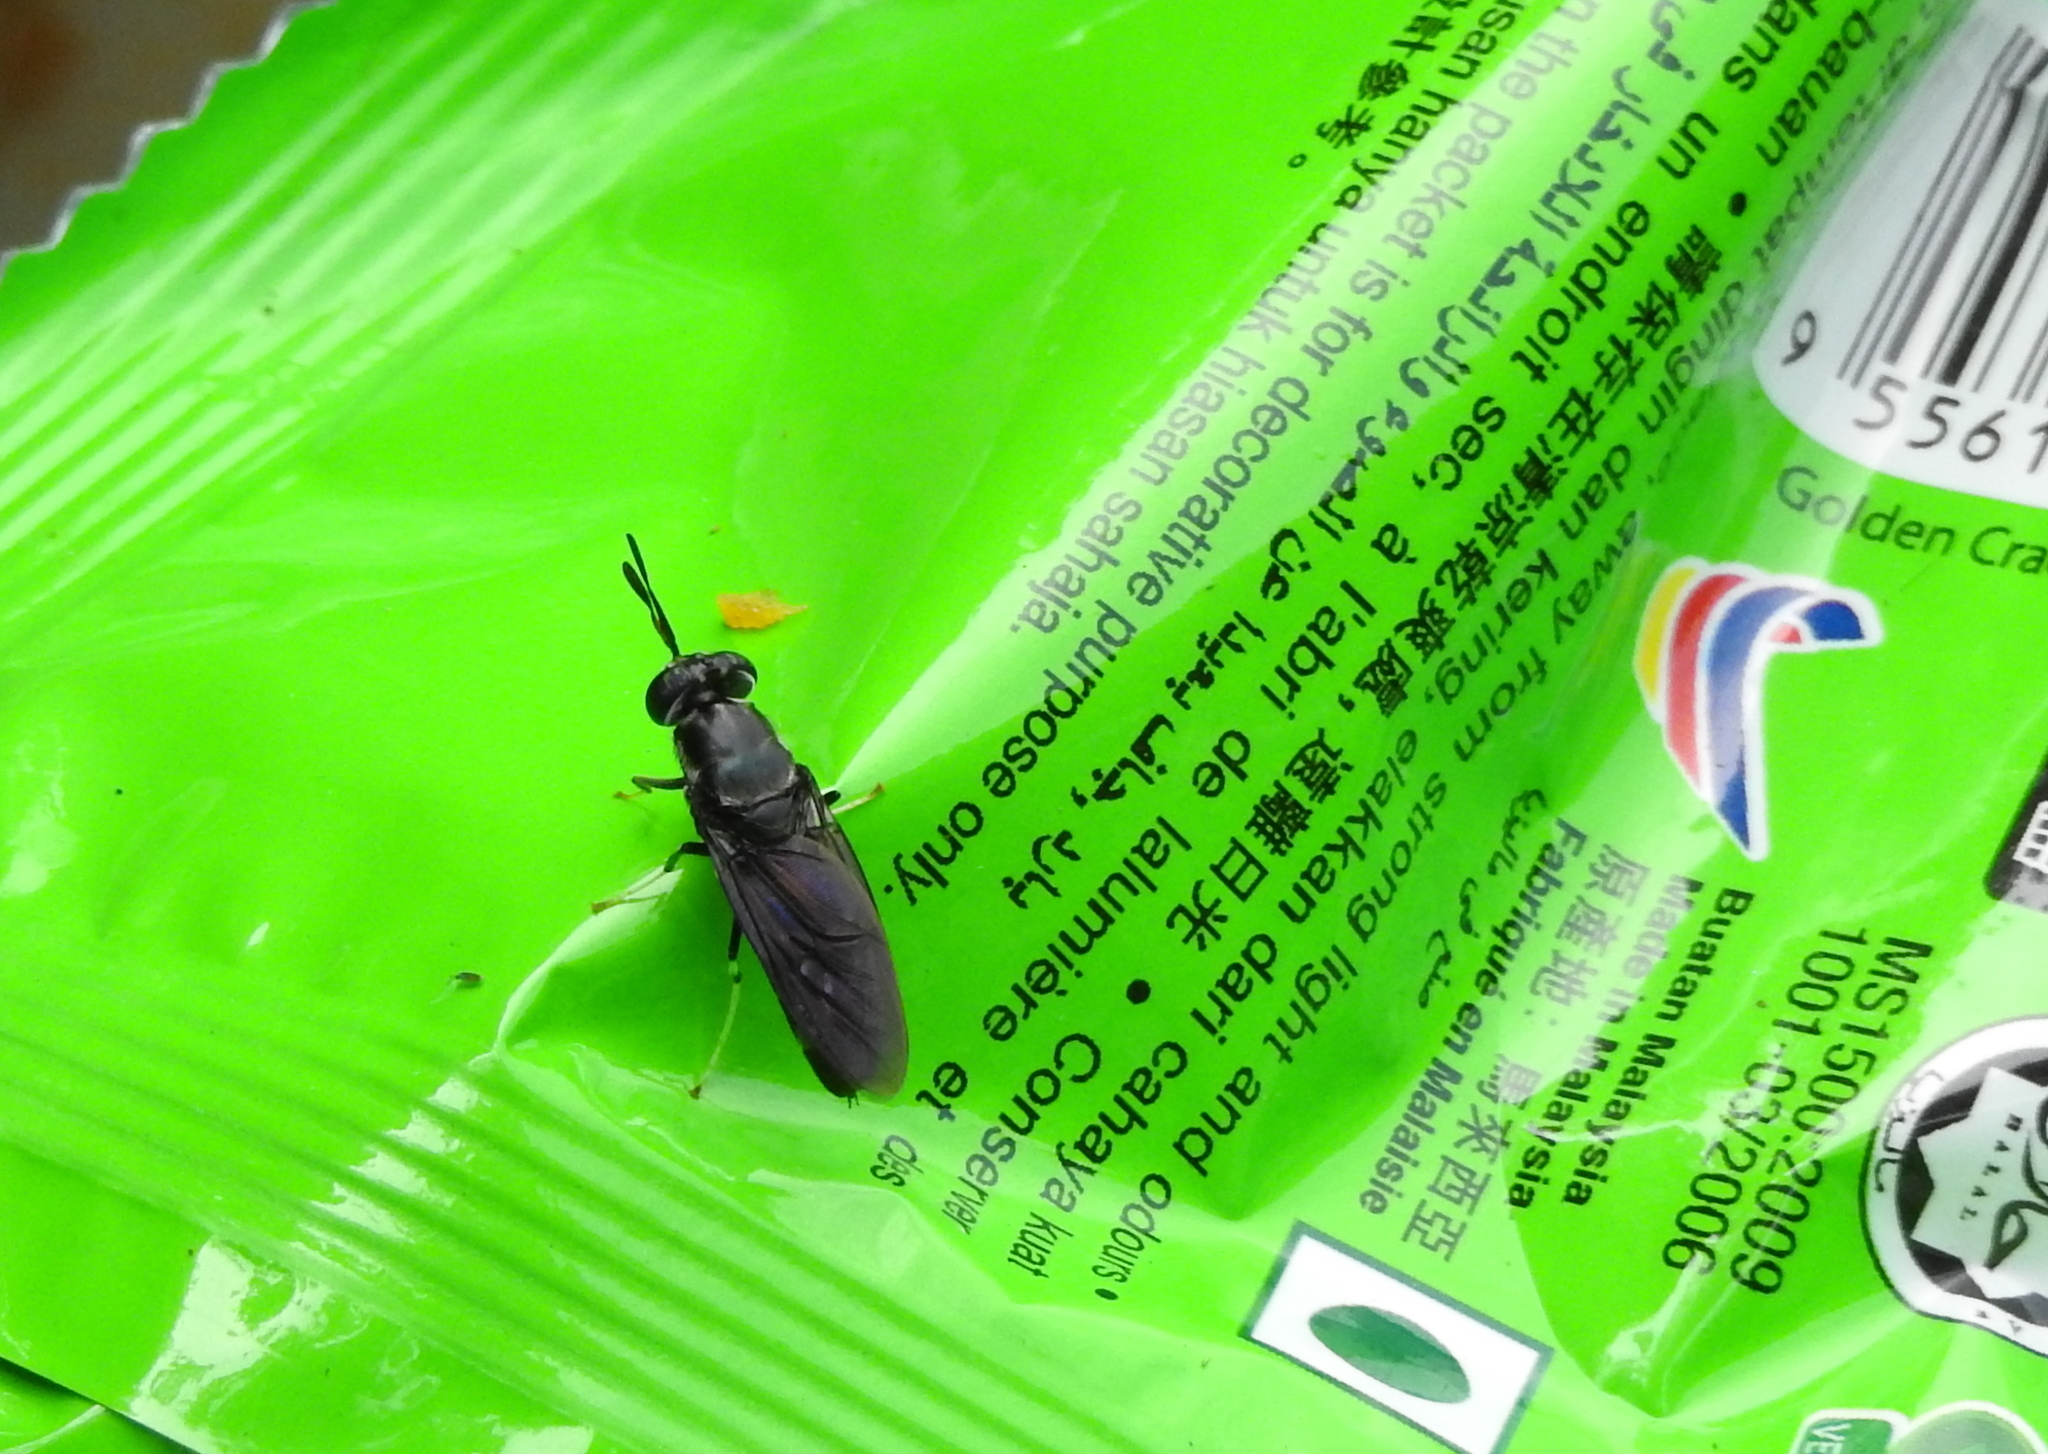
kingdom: Animalia
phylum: Arthropoda
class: Insecta
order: Diptera
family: Stratiomyidae
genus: Hermetia
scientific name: Hermetia illucens
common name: Black soldier fly
